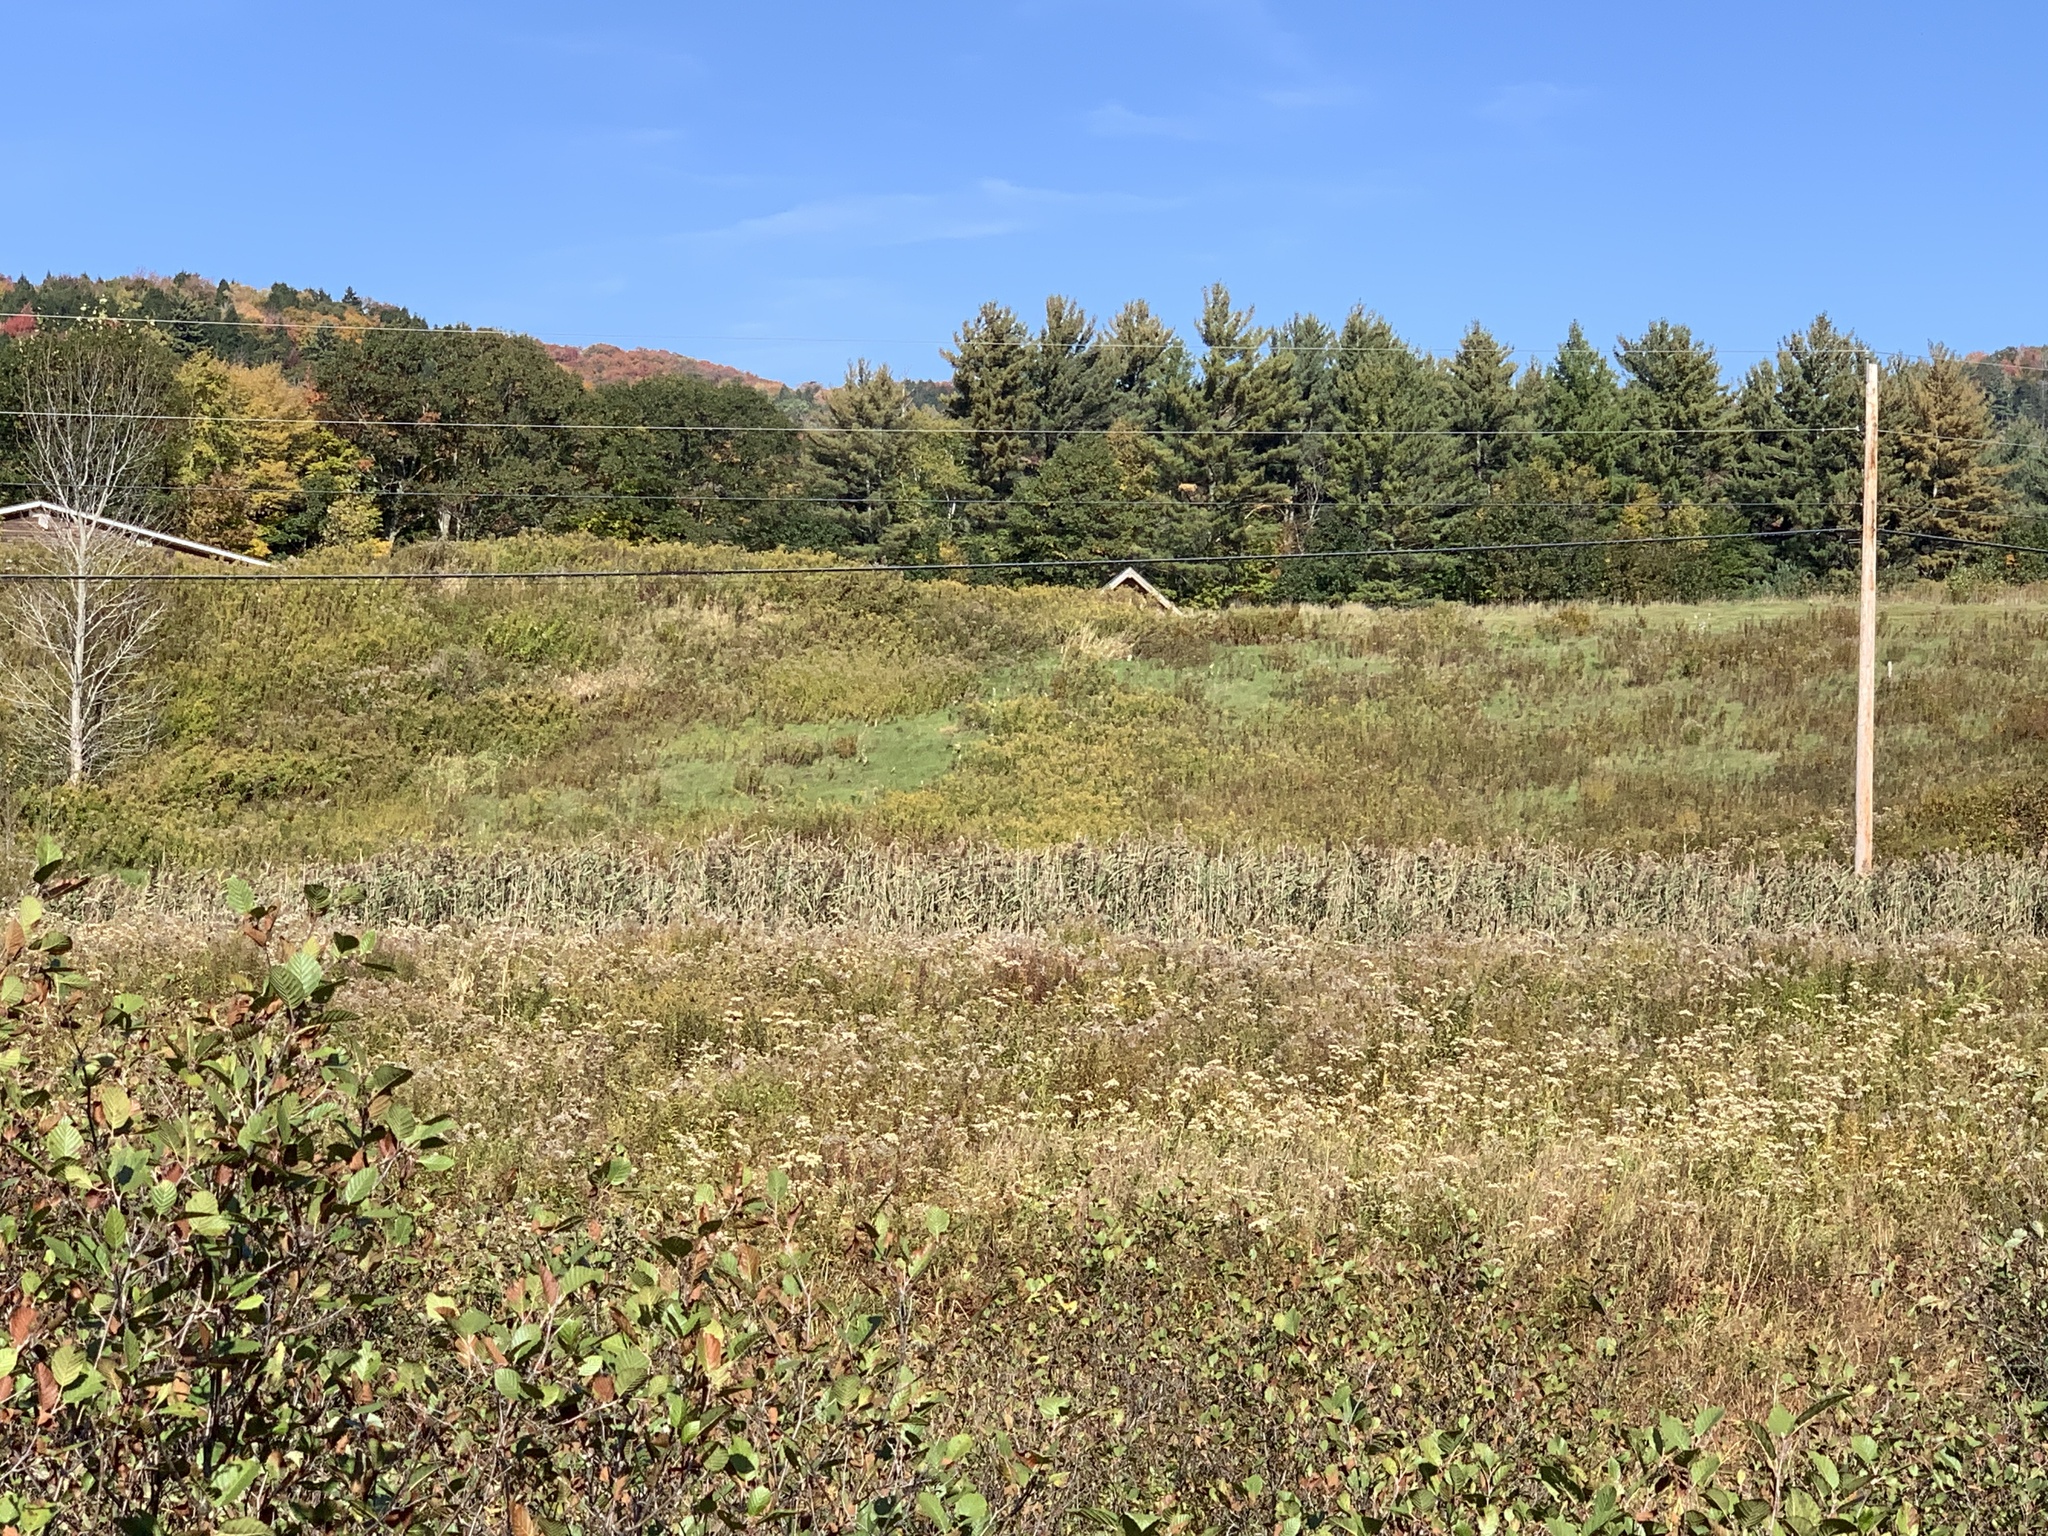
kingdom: Plantae
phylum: Tracheophyta
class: Liliopsida
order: Poales
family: Poaceae
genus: Phragmites
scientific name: Phragmites australis
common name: Common reed
